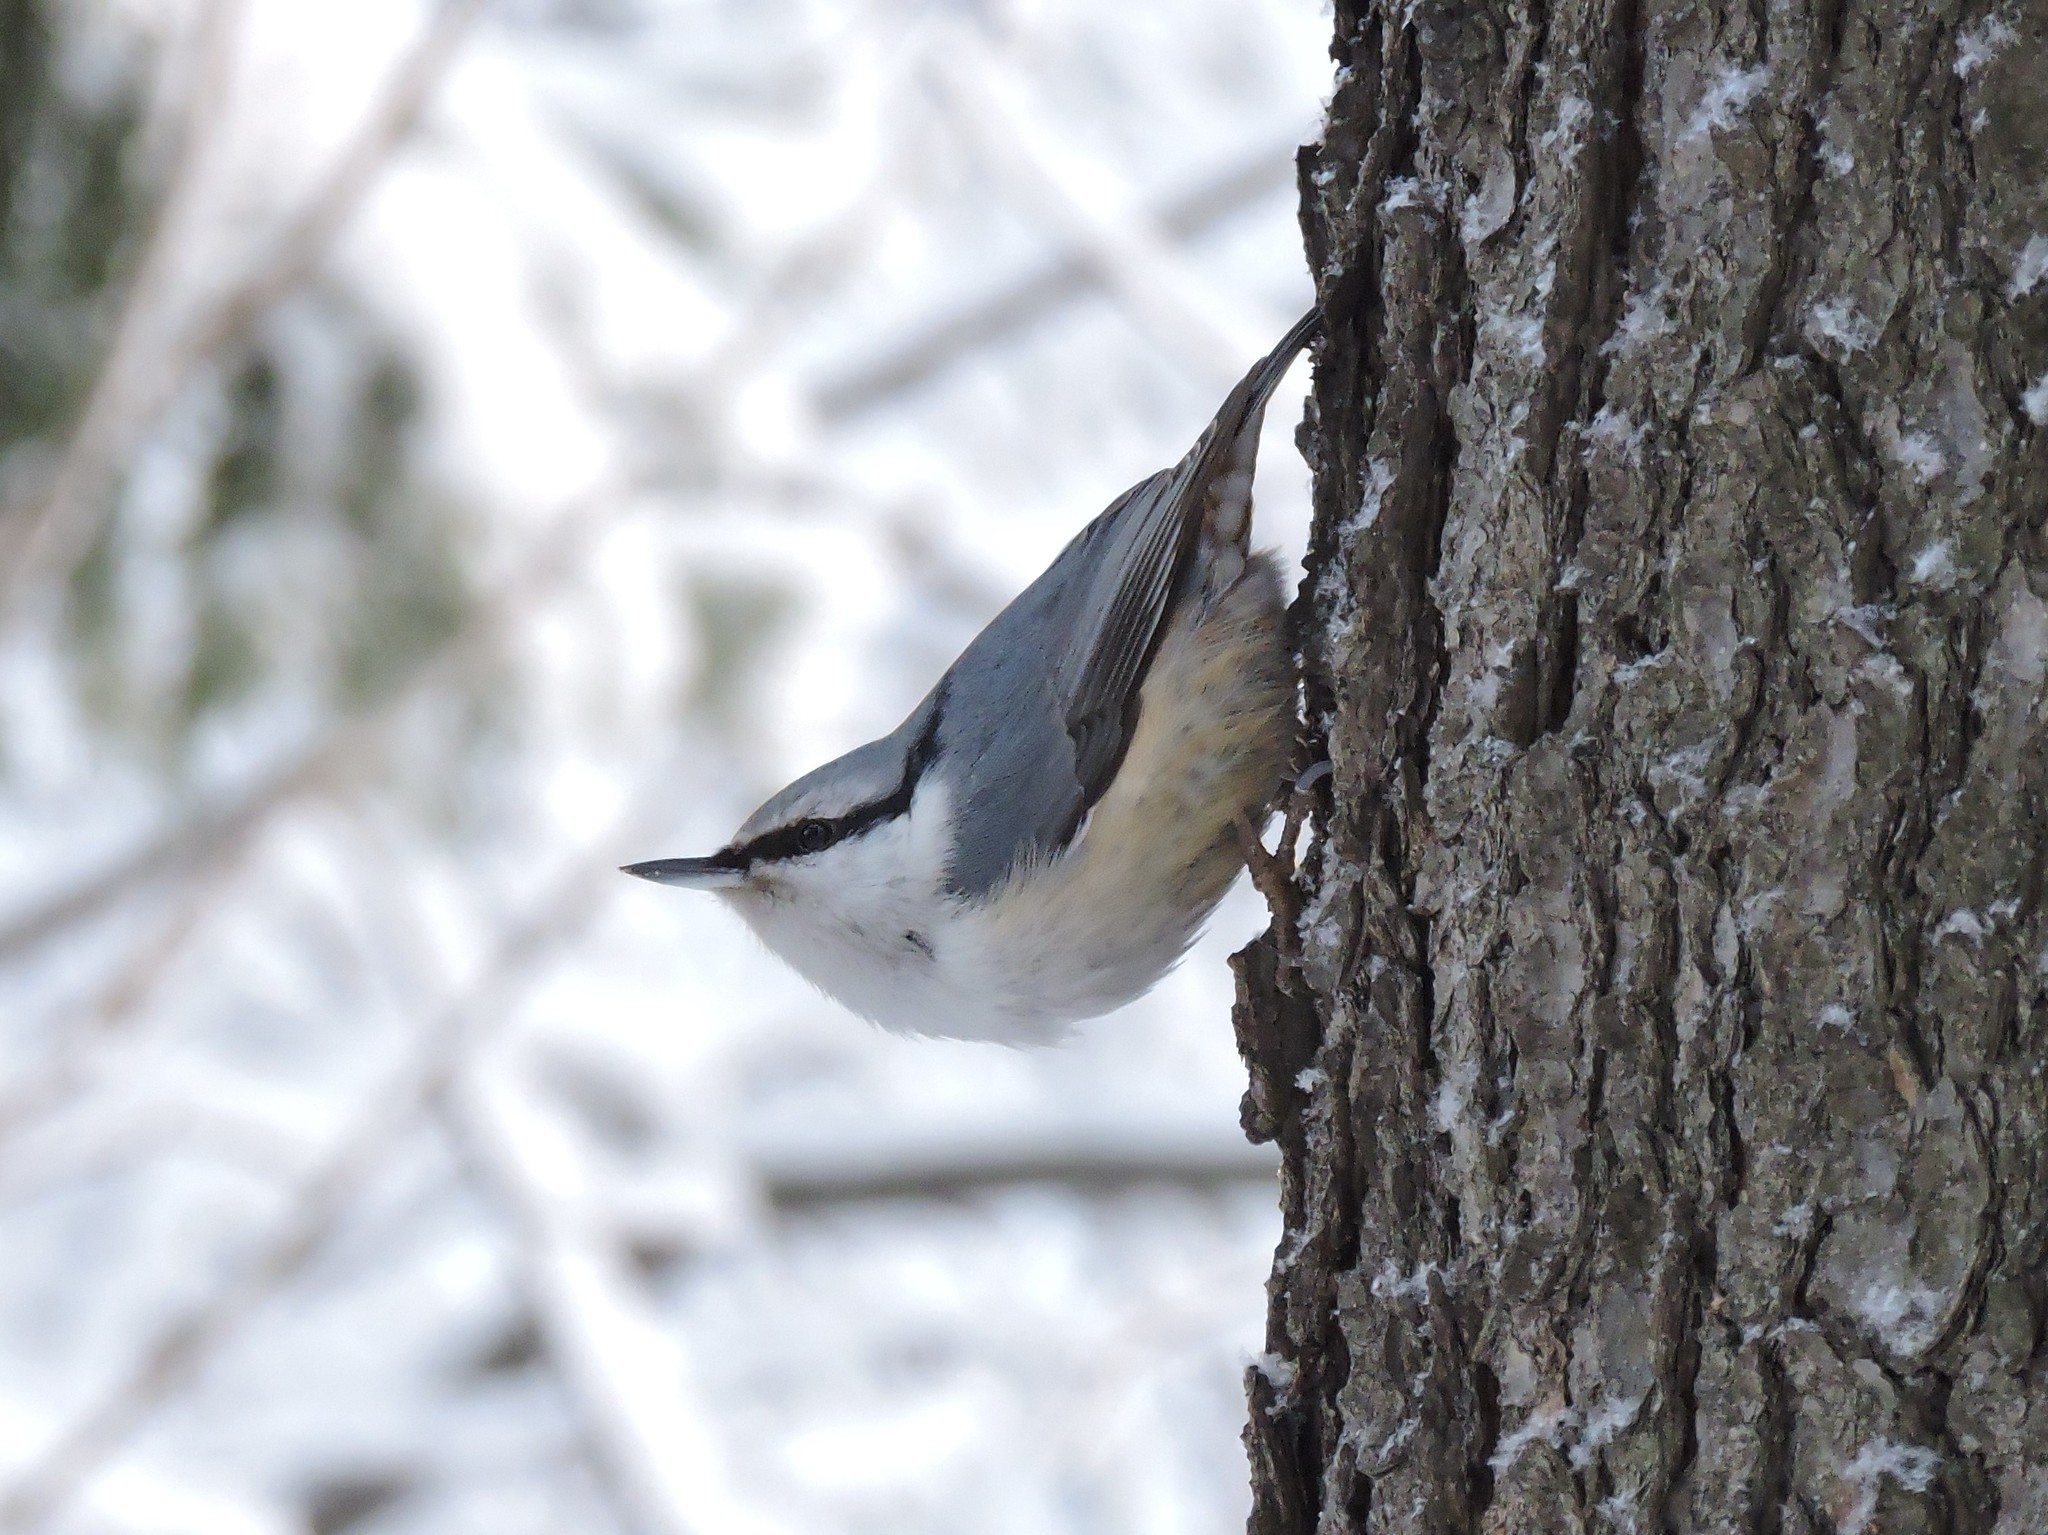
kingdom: Animalia
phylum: Chordata
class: Aves
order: Passeriformes
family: Sittidae
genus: Sitta
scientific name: Sitta europaea
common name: Eurasian nuthatch
